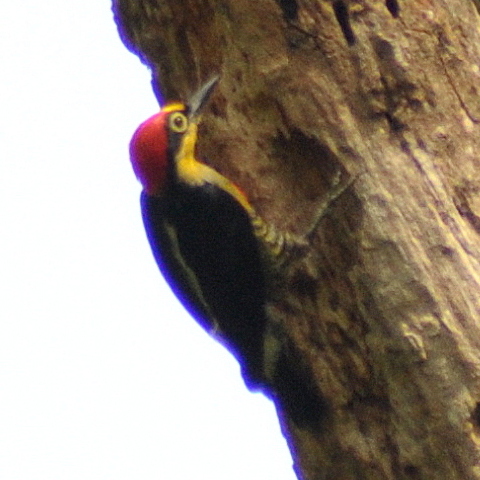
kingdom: Animalia
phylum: Chordata
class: Aves
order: Piciformes
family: Picidae
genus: Melanerpes
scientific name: Melanerpes flavifrons
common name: Yellow-fronted woodpecker
